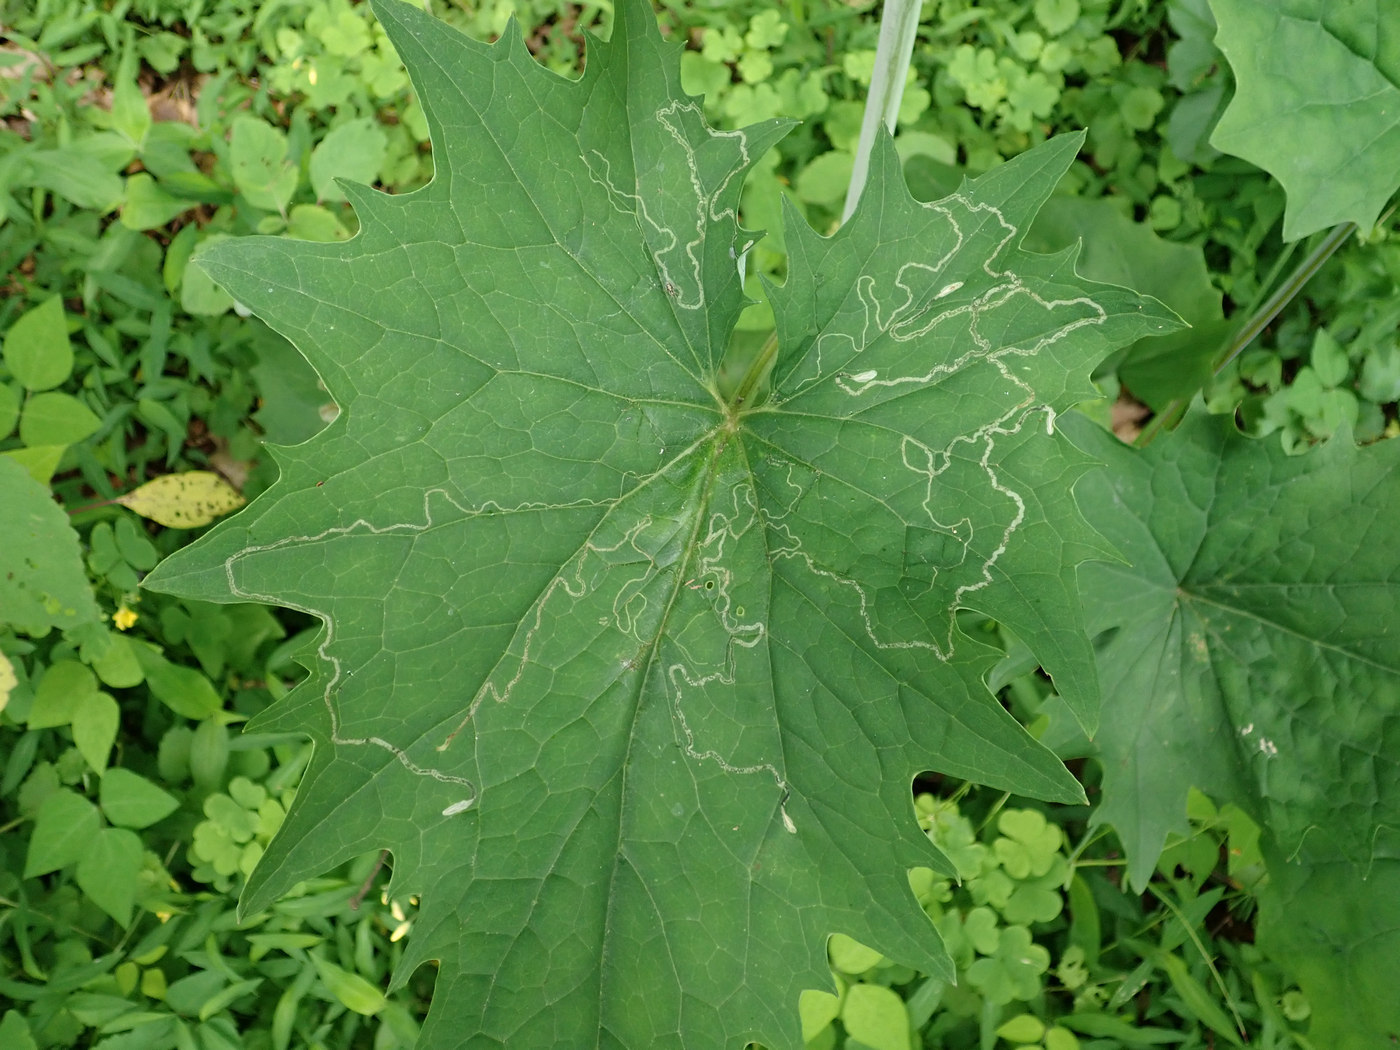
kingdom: Animalia
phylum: Arthropoda
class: Insecta
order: Lepidoptera
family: Gracillariidae
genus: Phyllocnistis
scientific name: Phyllocnistis insignis
